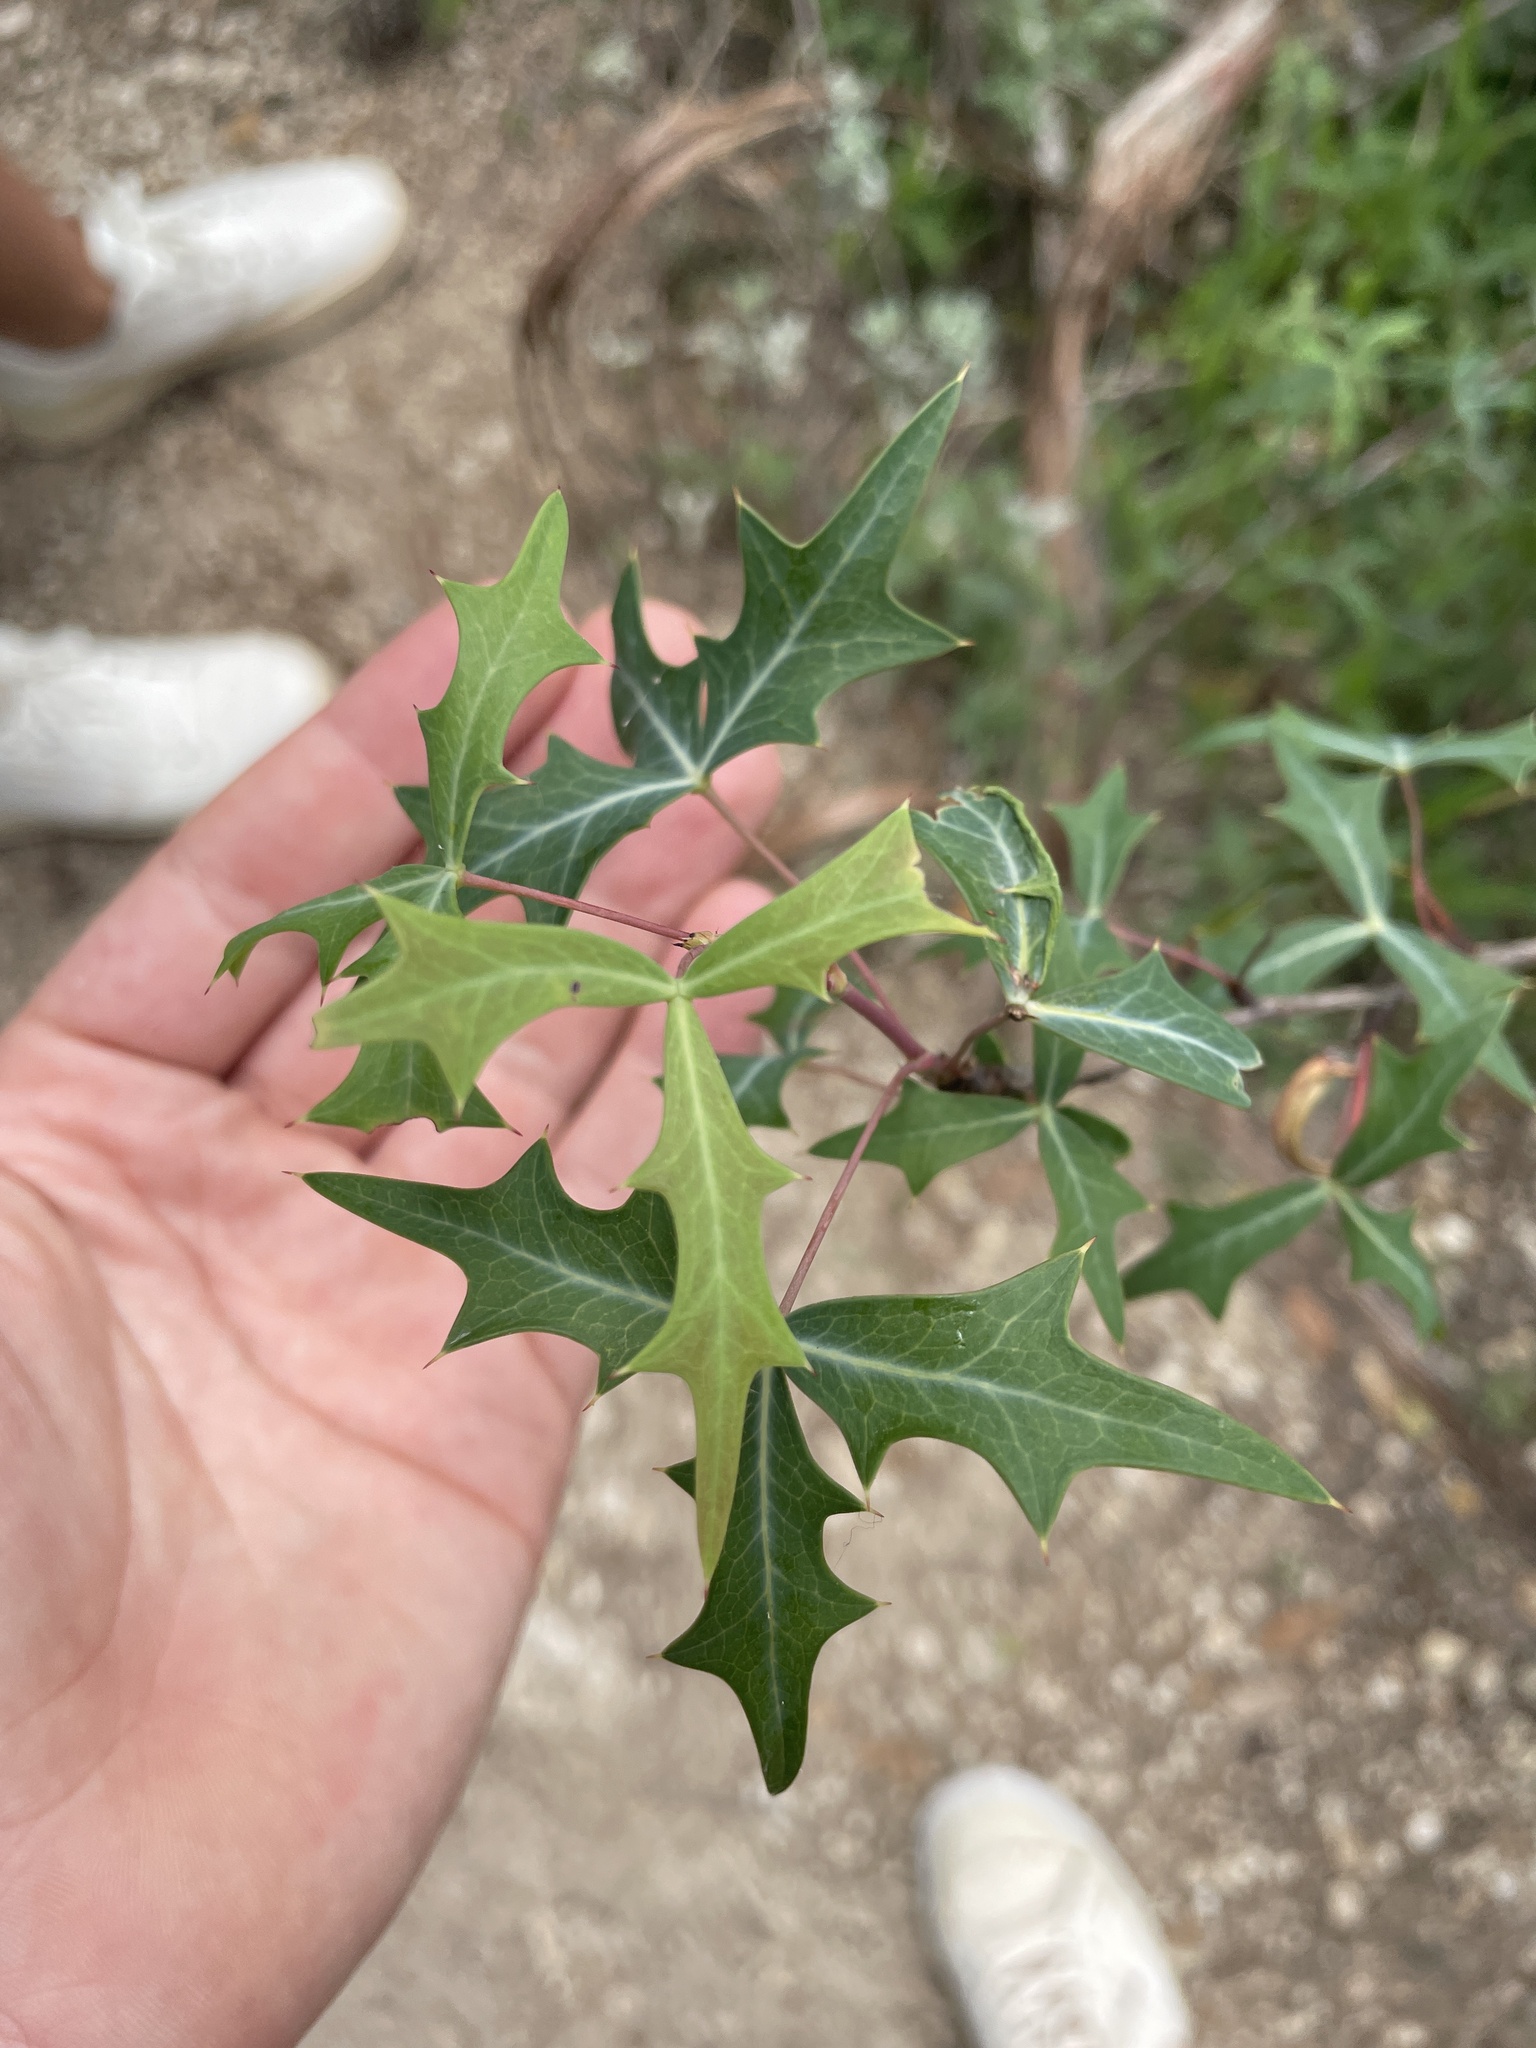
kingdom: Plantae
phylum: Tracheophyta
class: Magnoliopsida
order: Ranunculales
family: Berberidaceae
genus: Alloberberis
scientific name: Alloberberis trifoliolata
